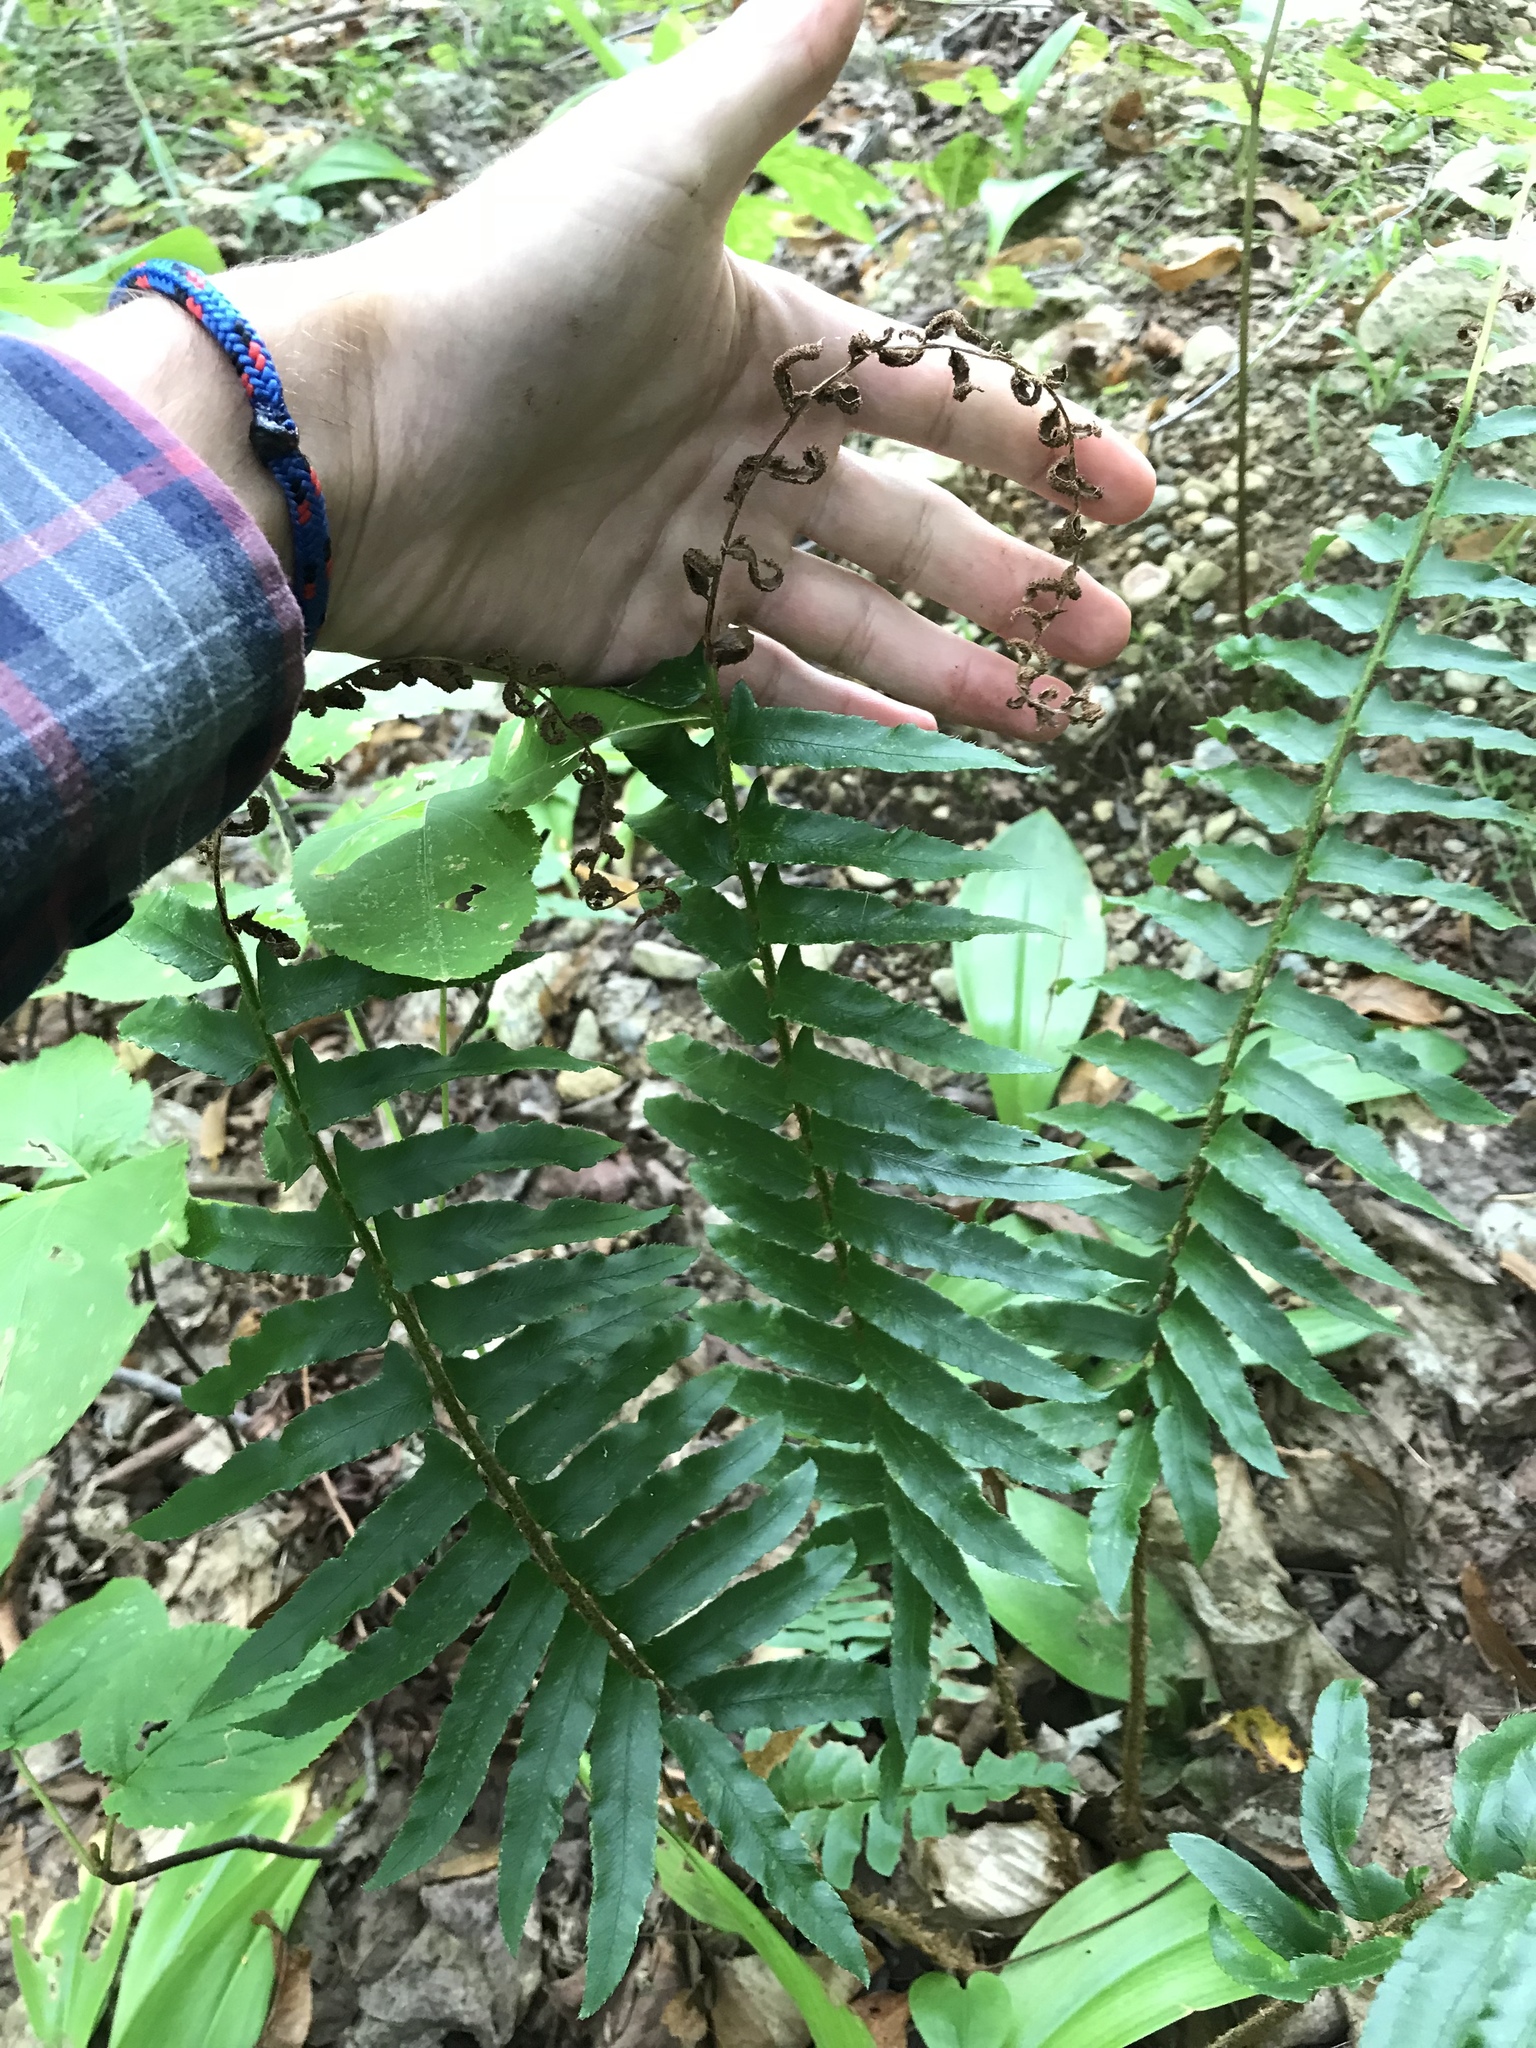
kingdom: Plantae
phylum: Tracheophyta
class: Polypodiopsida
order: Polypodiales
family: Dryopteridaceae
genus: Polystichum
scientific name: Polystichum acrostichoides
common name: Christmas fern
